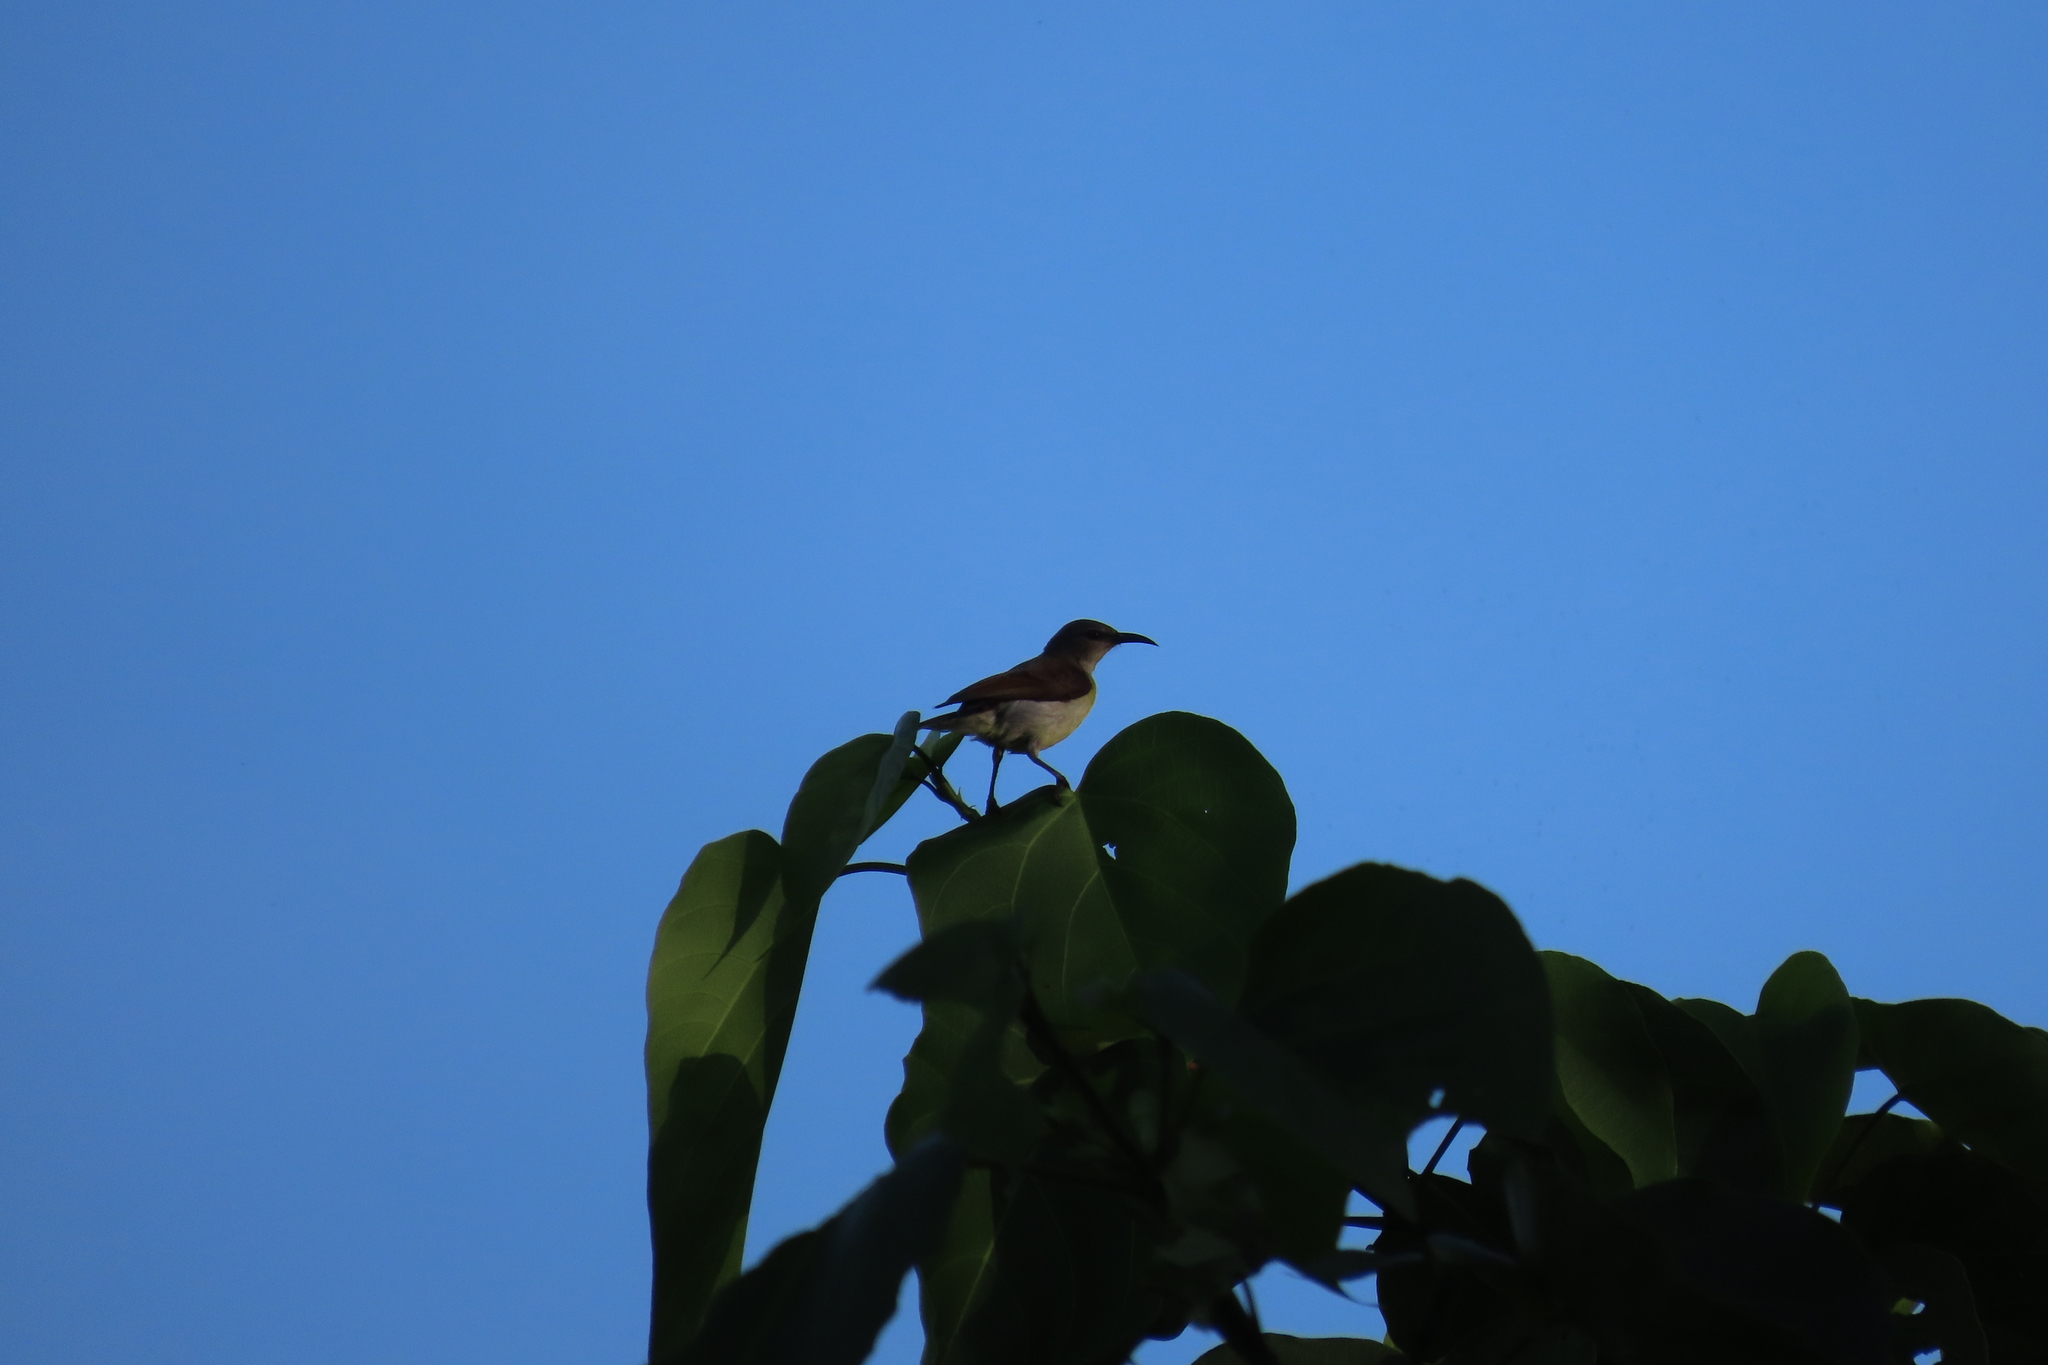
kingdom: Animalia
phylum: Chordata
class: Aves
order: Passeriformes
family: Nectariniidae
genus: Leptocoma
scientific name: Leptocoma zeylonica
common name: Purple-rumped sunbird
